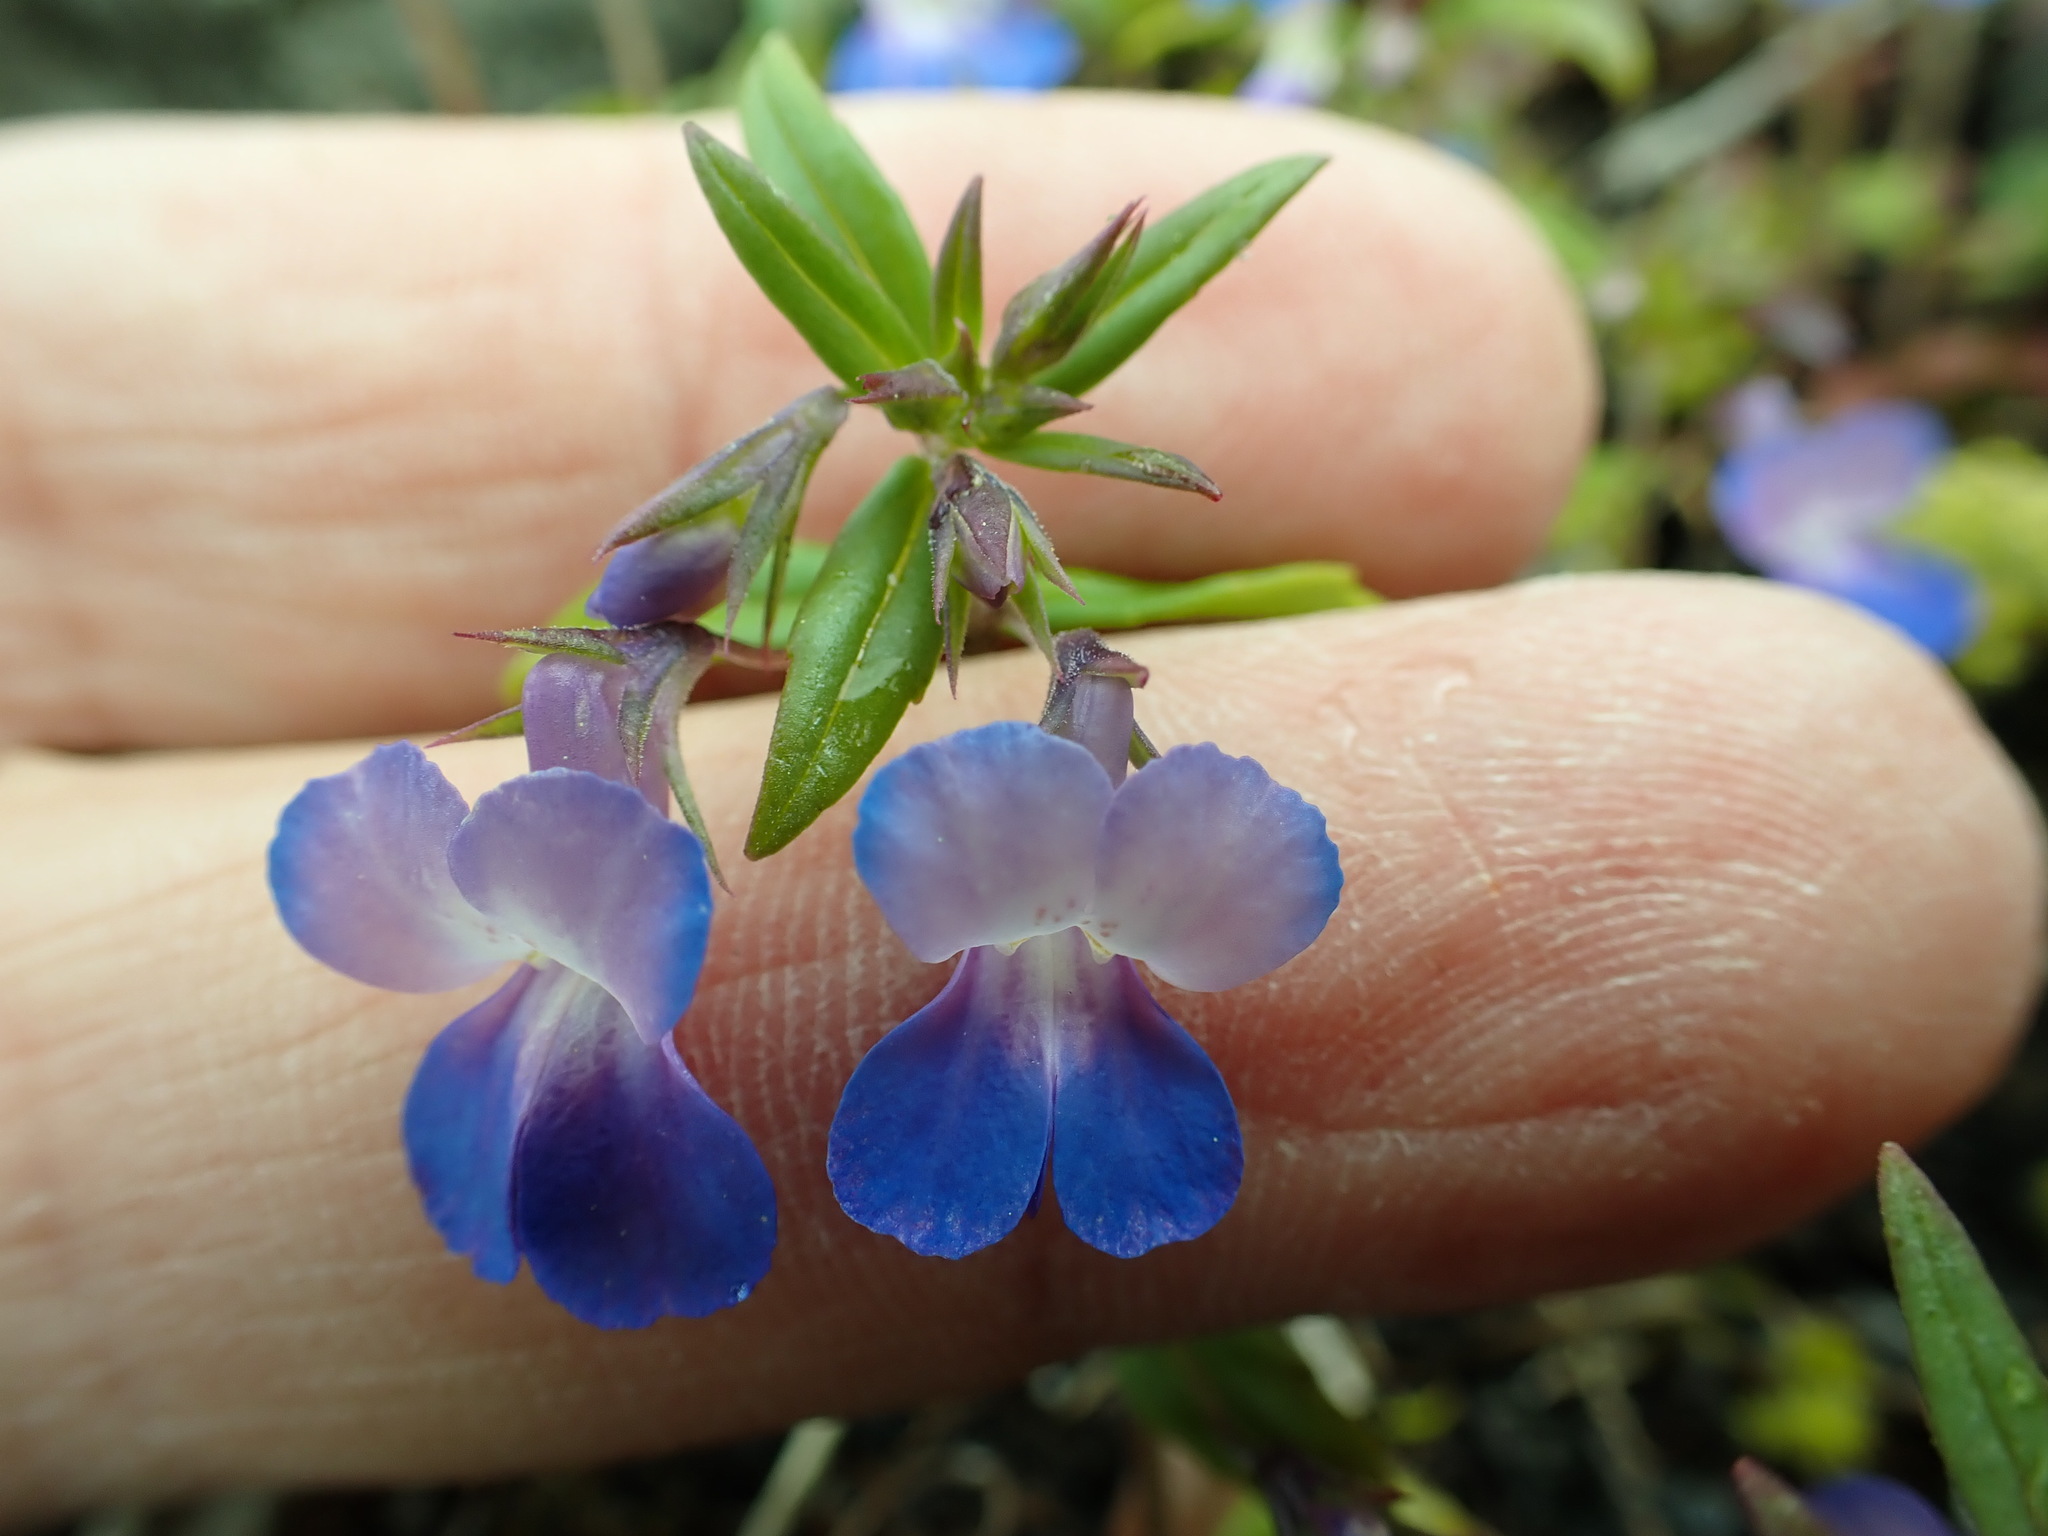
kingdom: Plantae
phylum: Tracheophyta
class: Magnoliopsida
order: Lamiales
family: Plantaginaceae
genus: Collinsia
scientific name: Collinsia grandiflora
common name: Large-flower blue-eyed-mary
